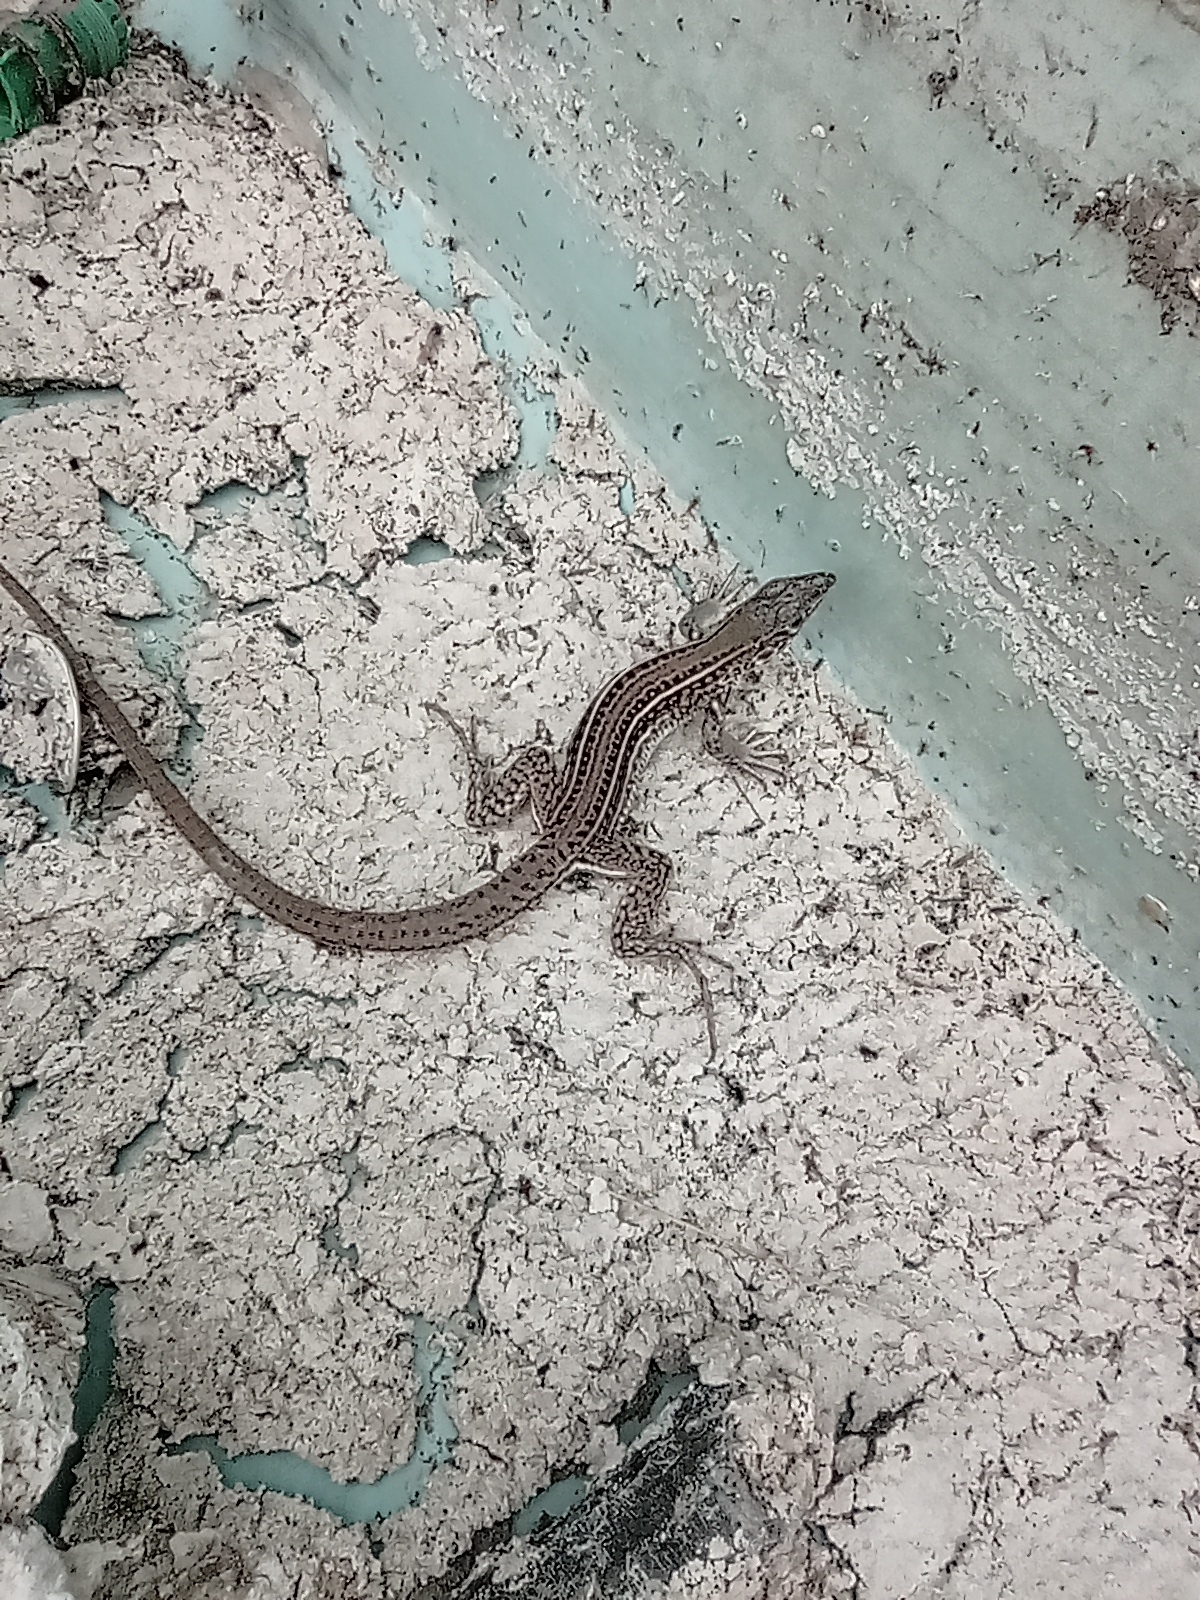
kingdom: Animalia
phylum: Chordata
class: Squamata
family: Teiidae
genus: Teius
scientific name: Teius teyou
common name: Four-toed tegu
